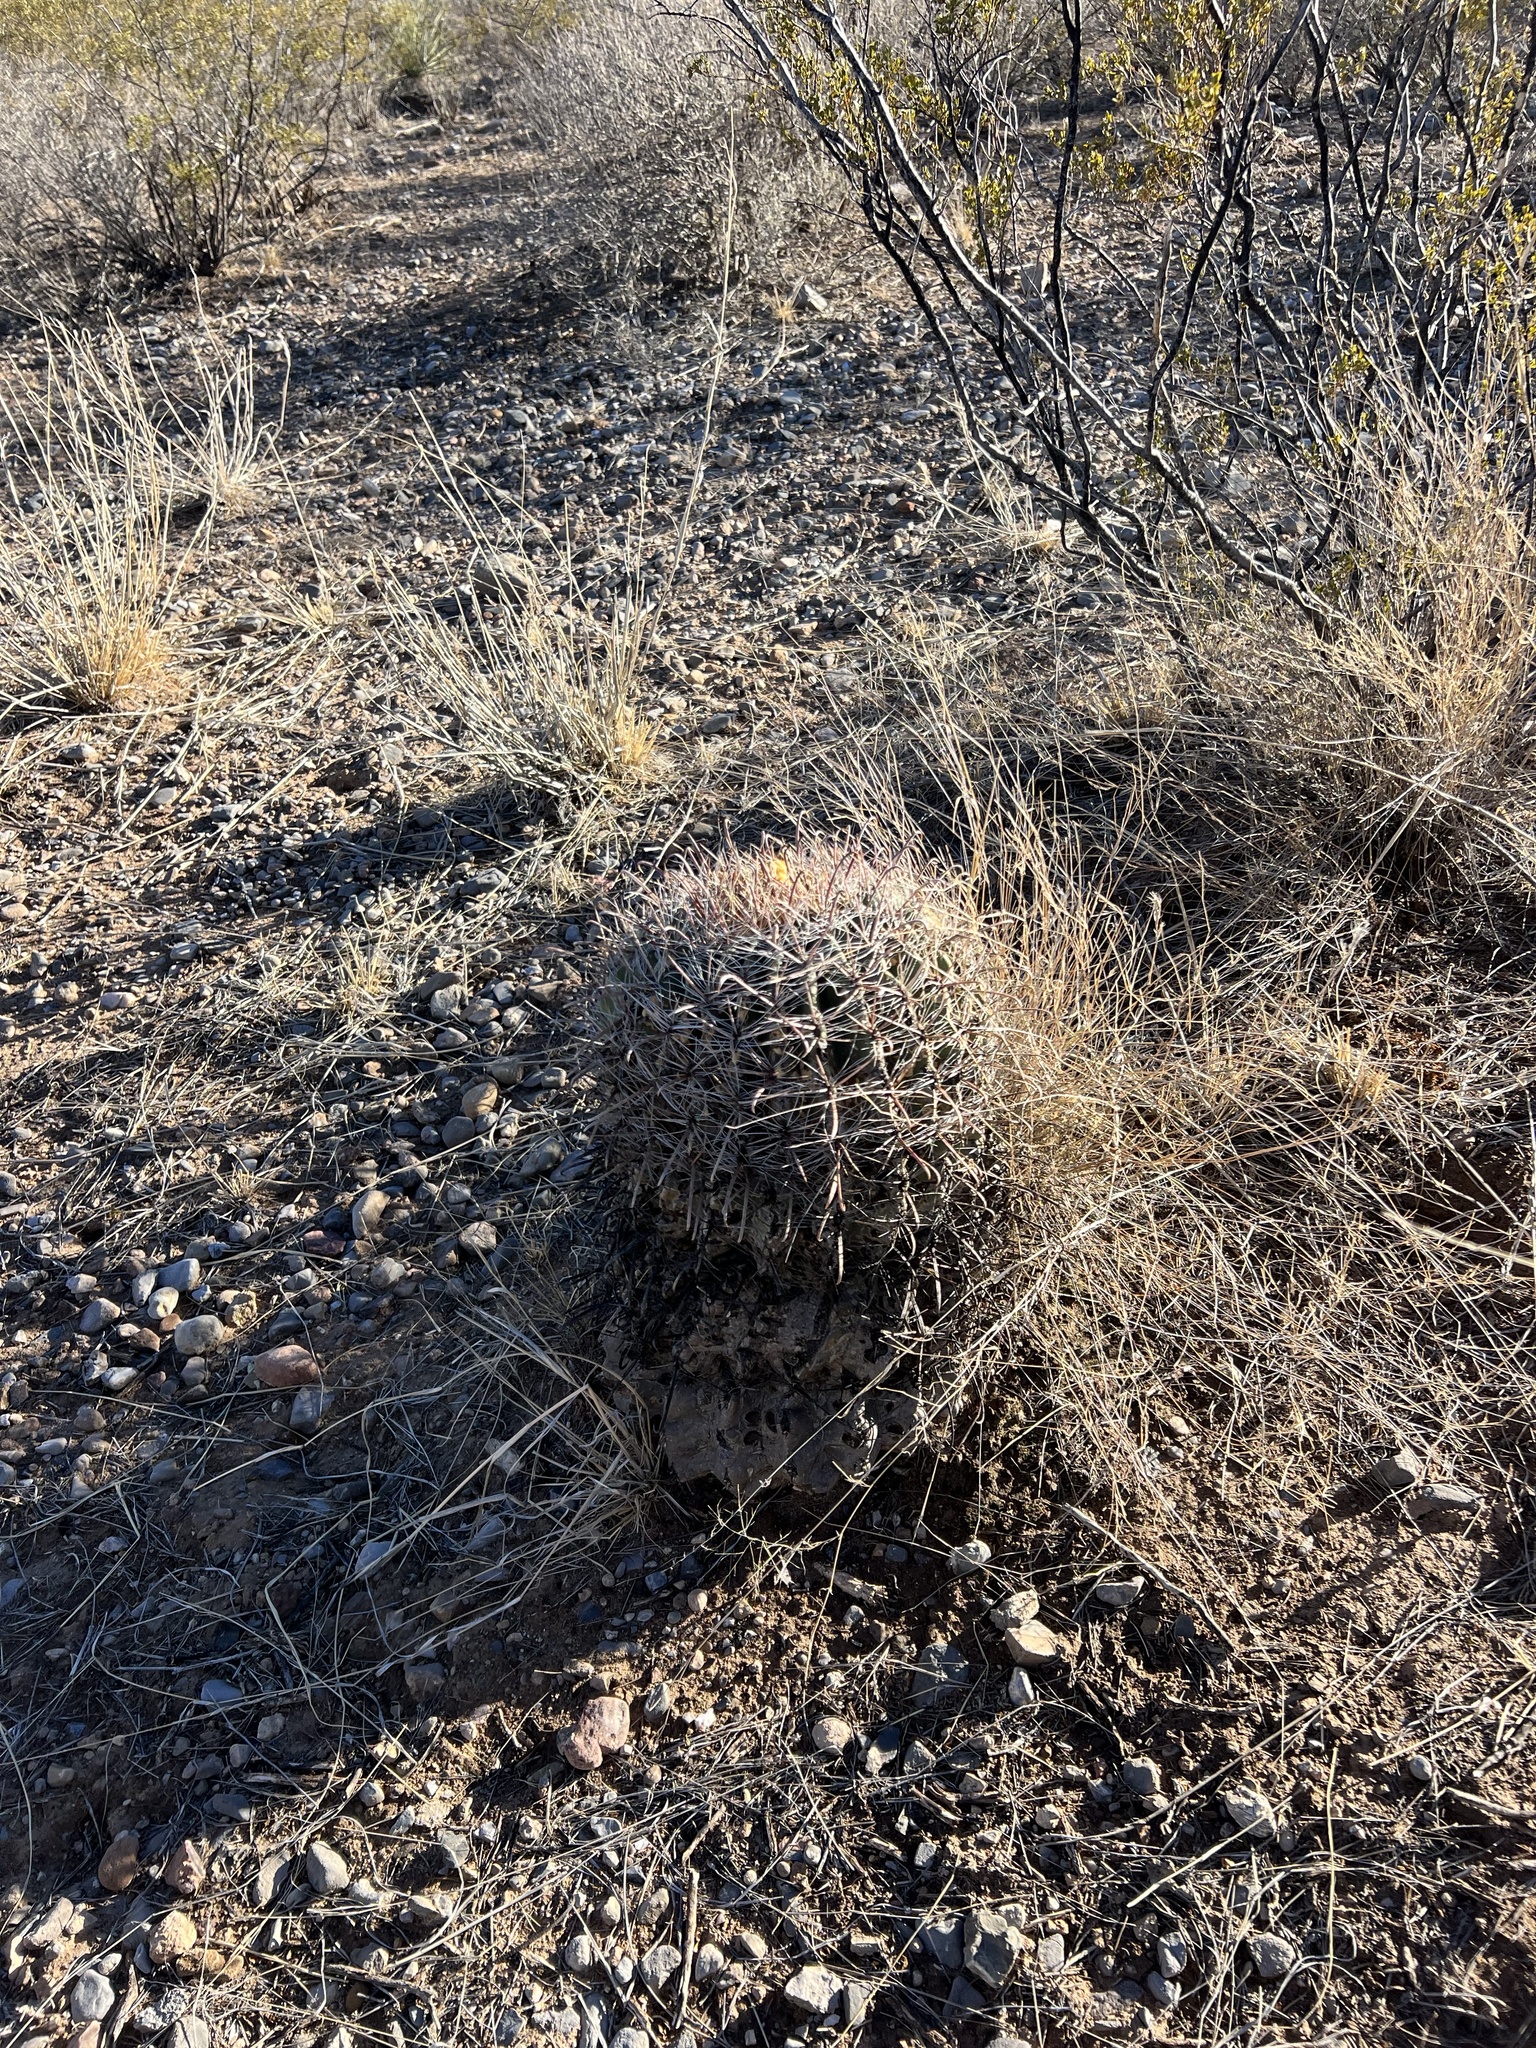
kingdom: Plantae
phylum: Tracheophyta
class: Magnoliopsida
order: Caryophyllales
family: Cactaceae
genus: Ferocactus
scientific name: Ferocactus wislizeni
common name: Candy barrel cactus
